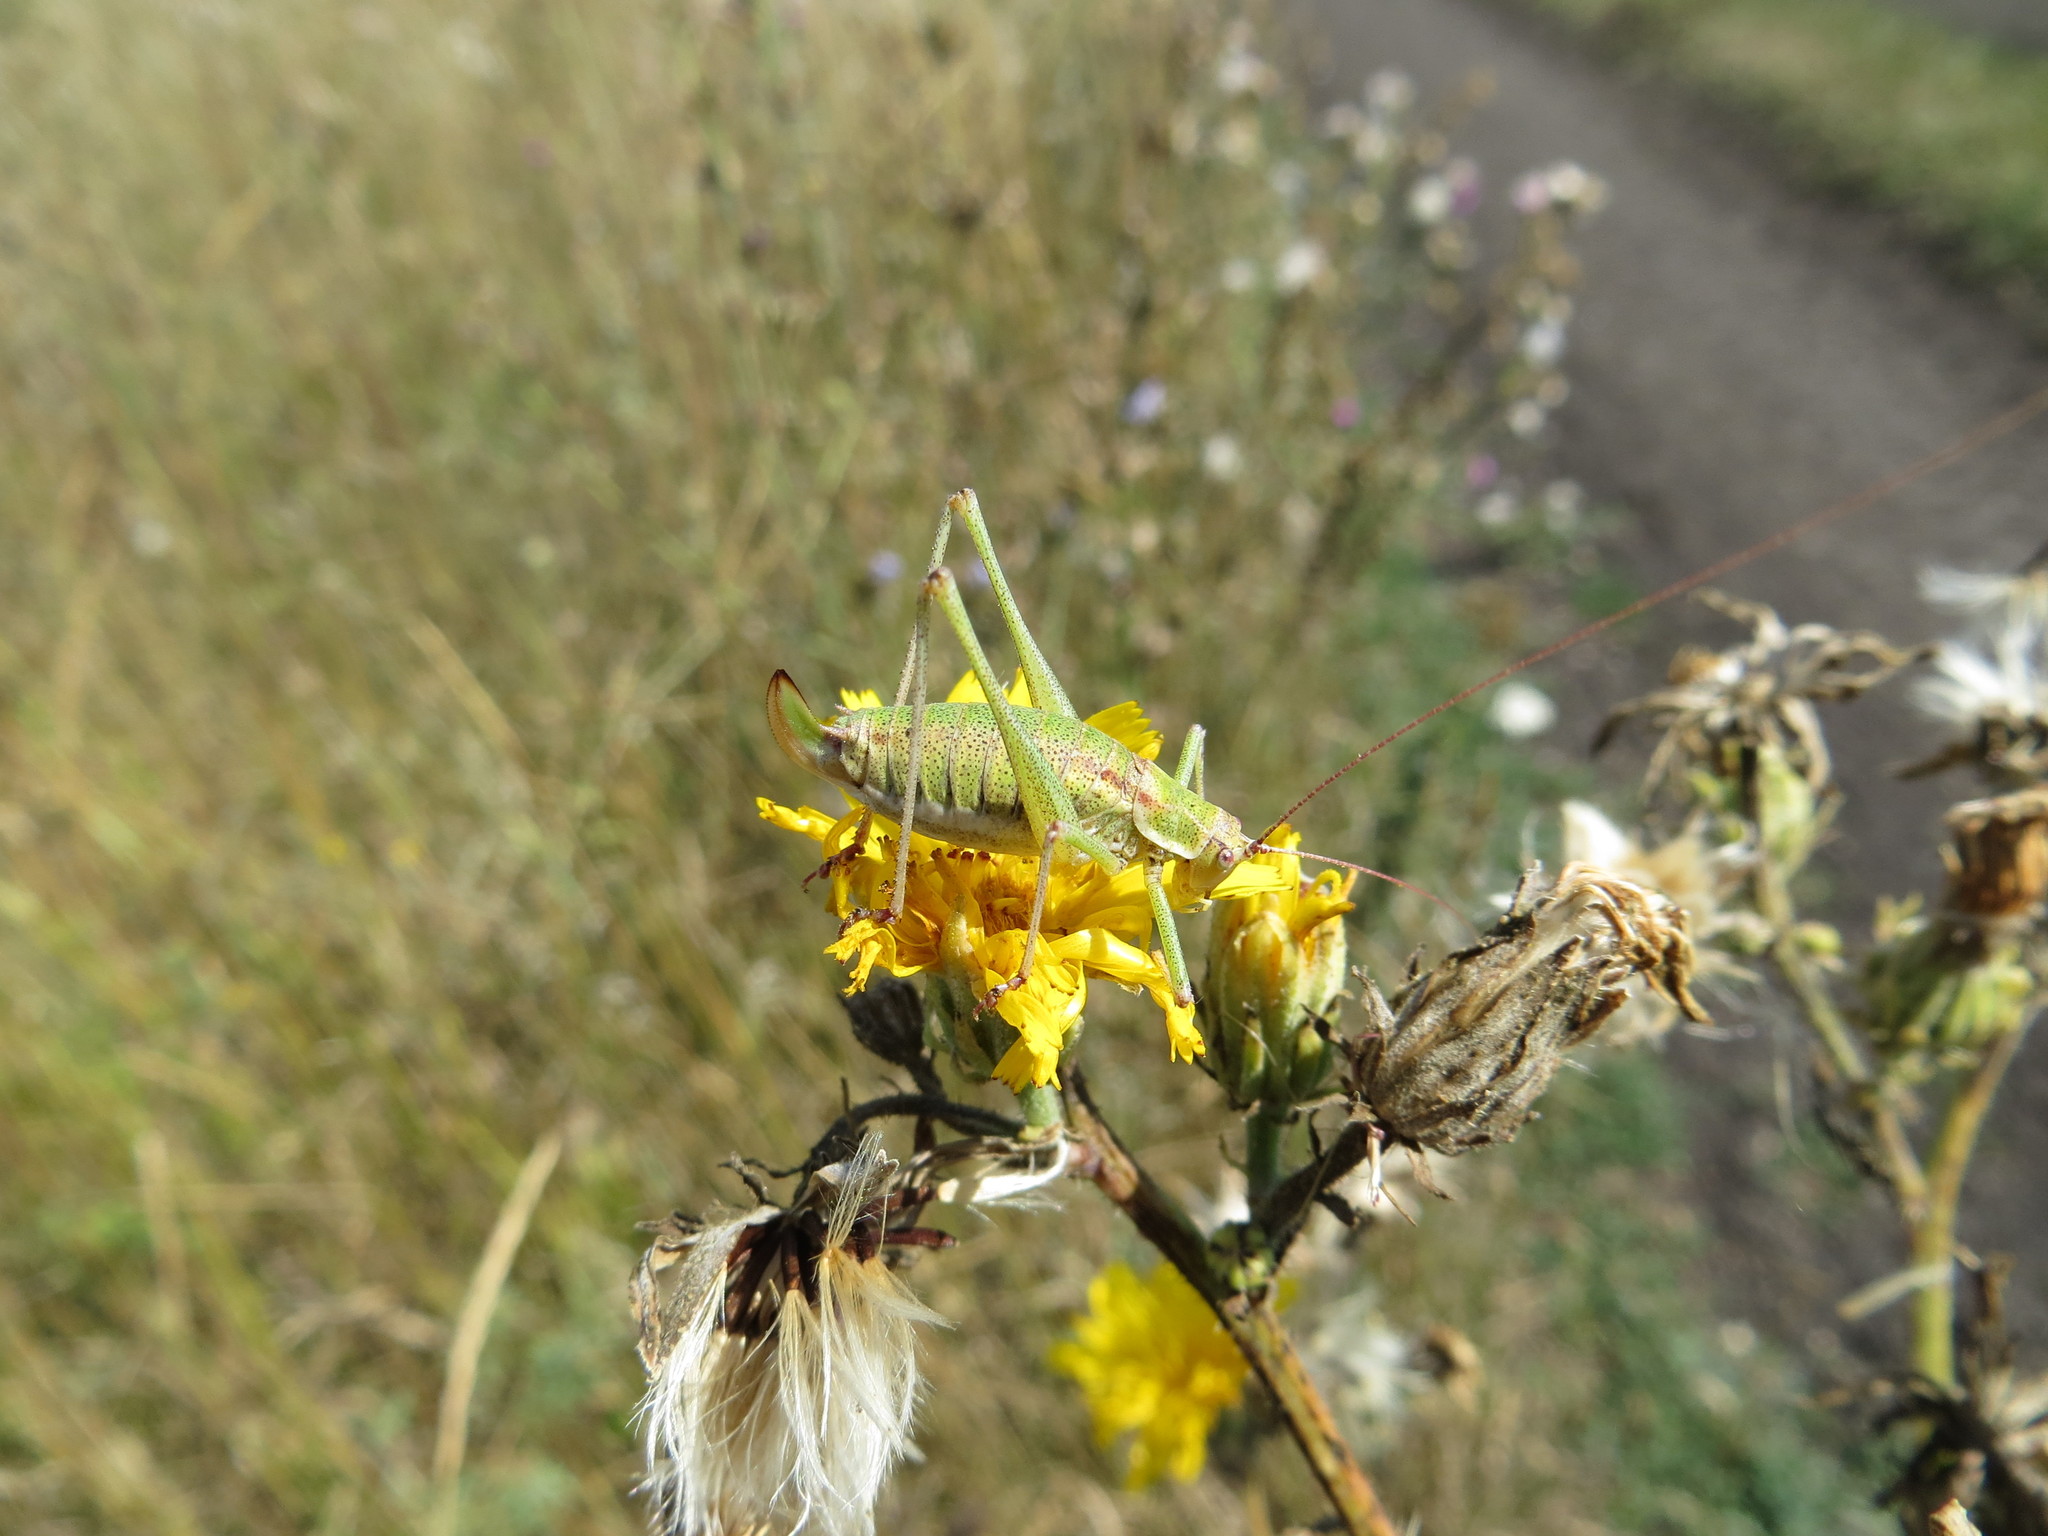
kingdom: Animalia
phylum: Arthropoda
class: Insecta
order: Orthoptera
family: Tettigoniidae
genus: Leptophyes
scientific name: Leptophyes albovittata
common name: Striped bush-cricket
